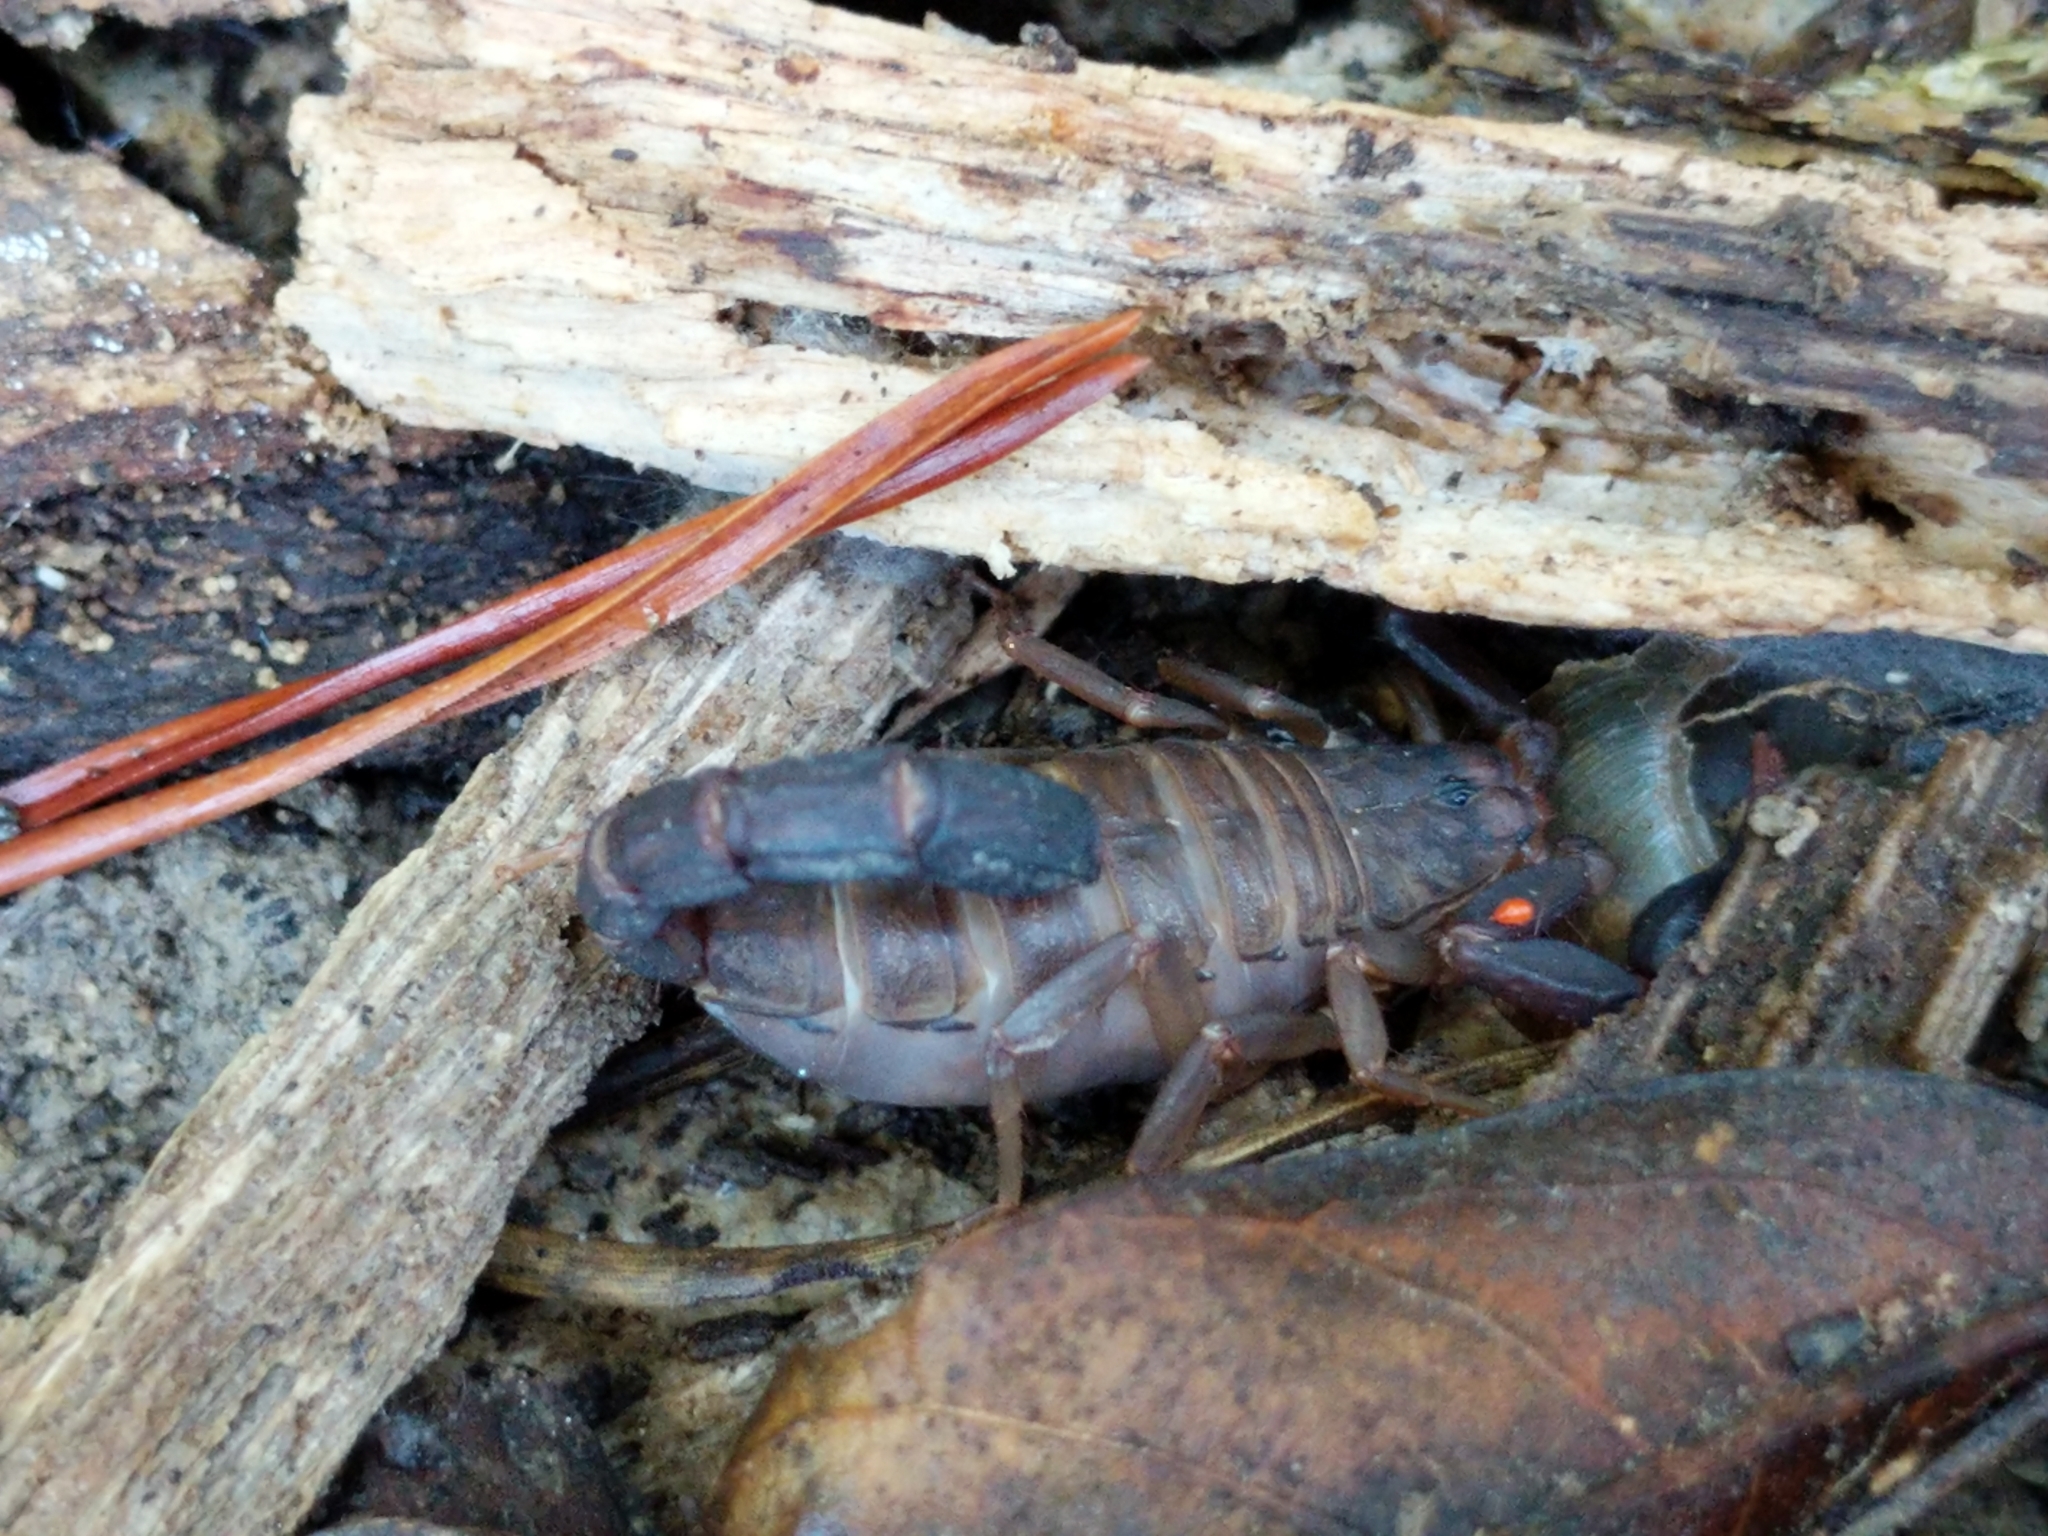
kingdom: Animalia
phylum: Arthropoda
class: Arachnida
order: Scorpiones
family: Vaejovidae
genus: Vaejovis
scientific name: Vaejovis carolinianus
